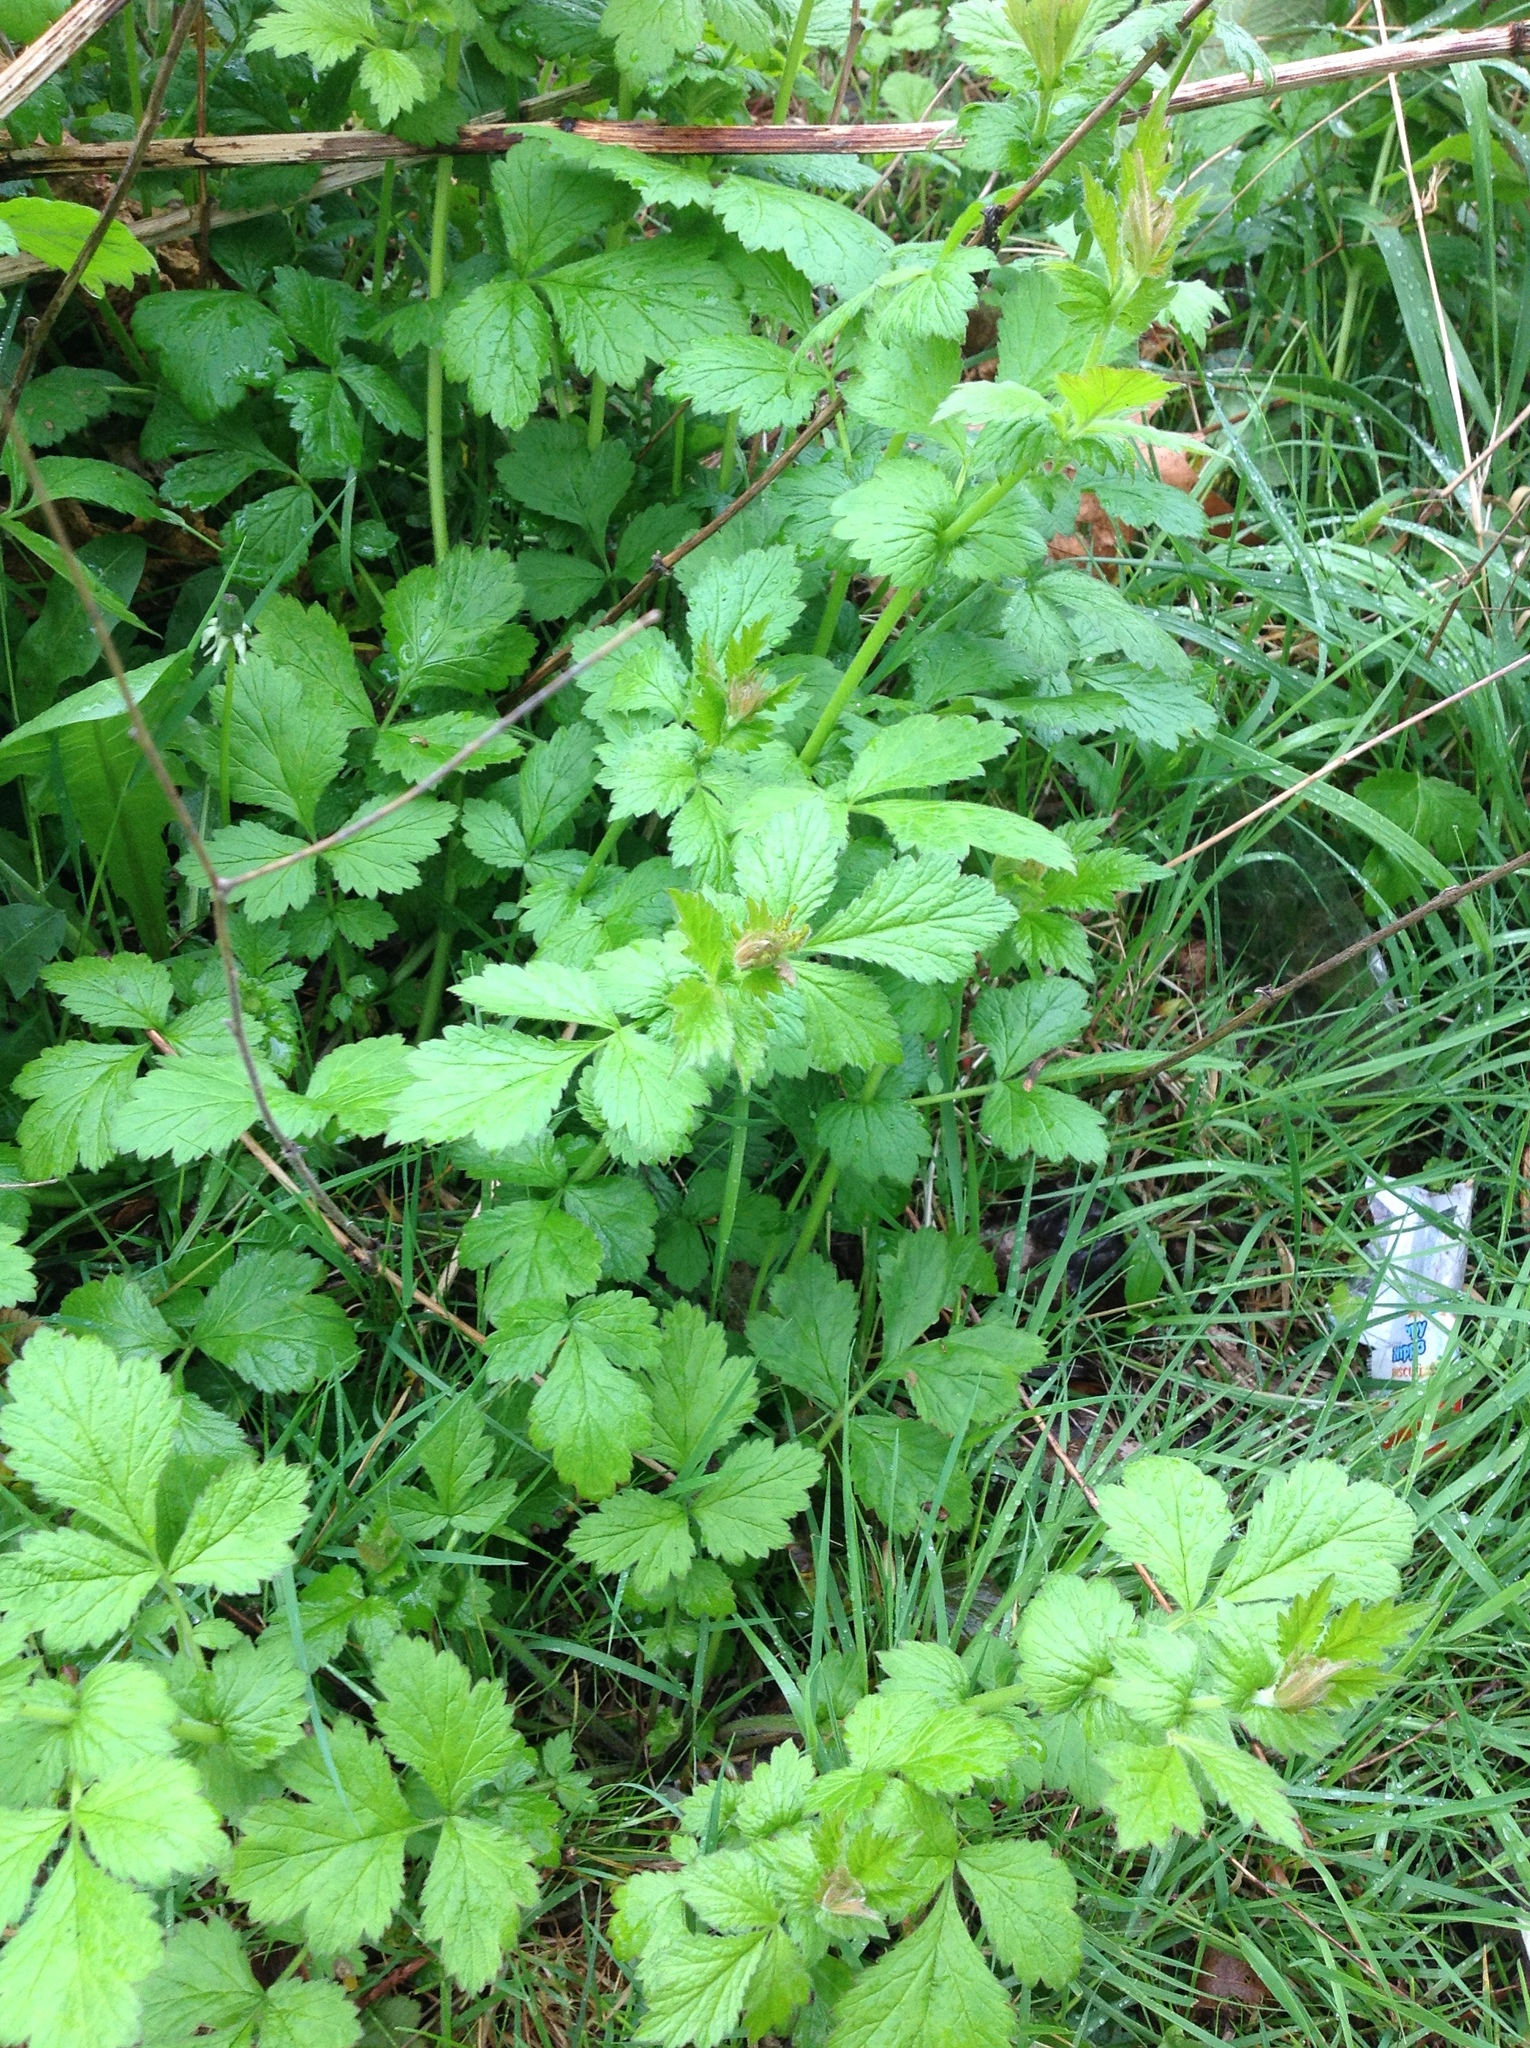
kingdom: Plantae
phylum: Tracheophyta
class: Magnoliopsida
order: Rosales
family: Rosaceae
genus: Geum
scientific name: Geum urbanum
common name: Wood avens
